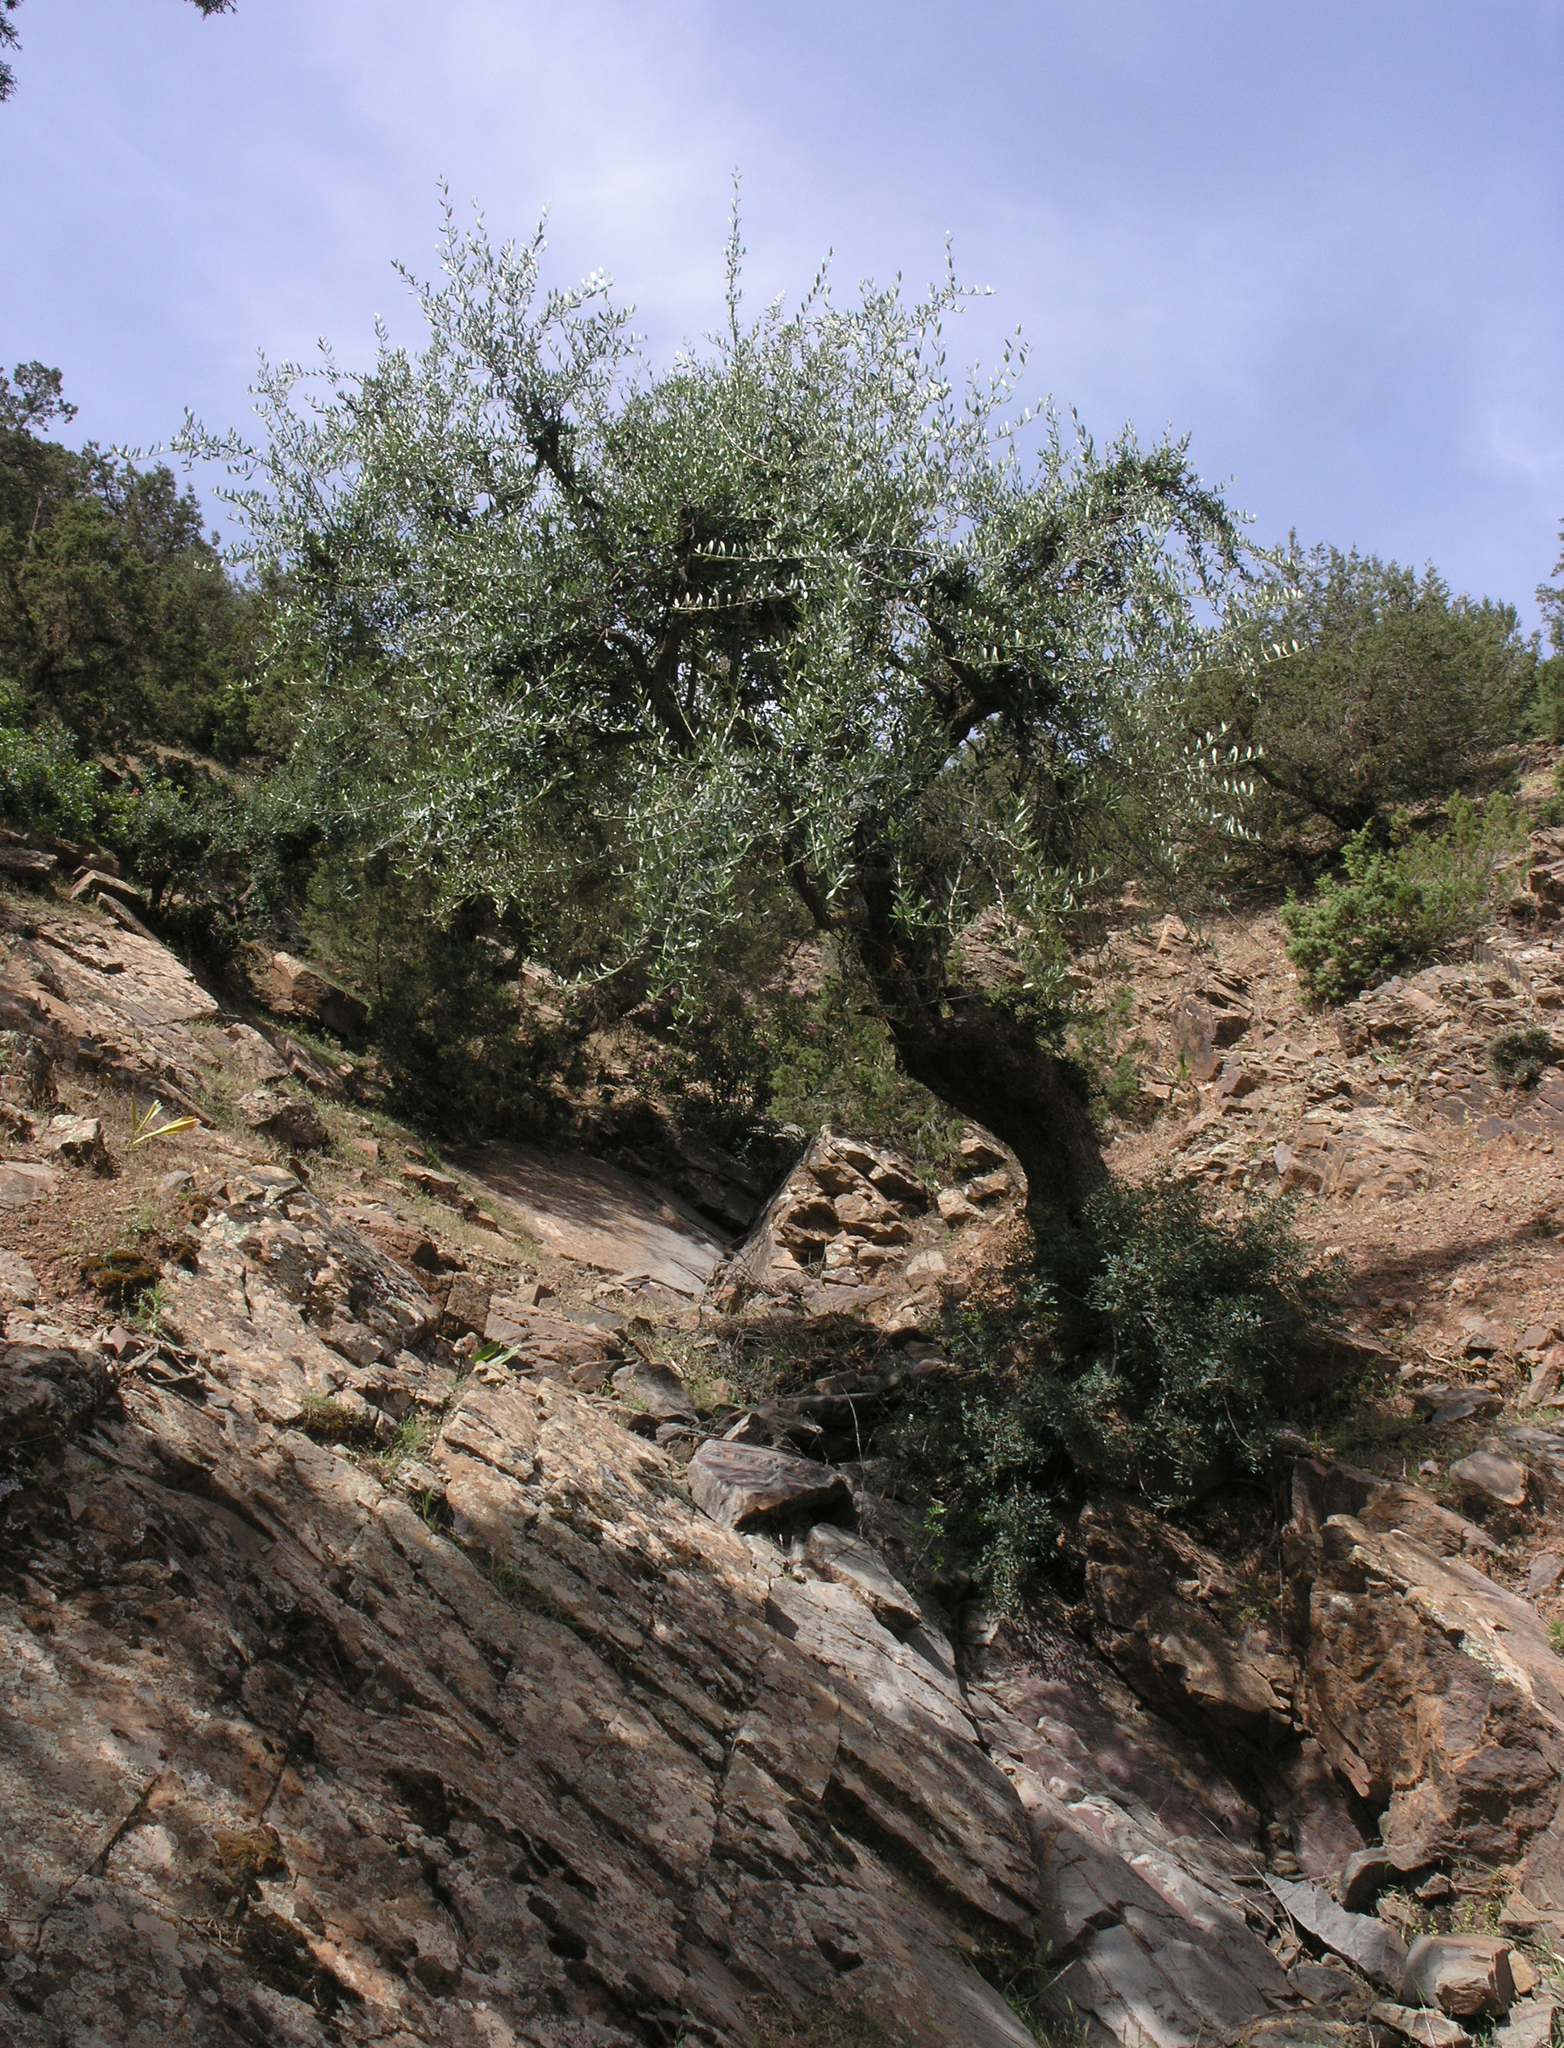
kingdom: Plantae
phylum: Tracheophyta
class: Magnoliopsida
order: Lamiales
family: Oleaceae
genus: Olea
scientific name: Olea europaea
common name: Olive
